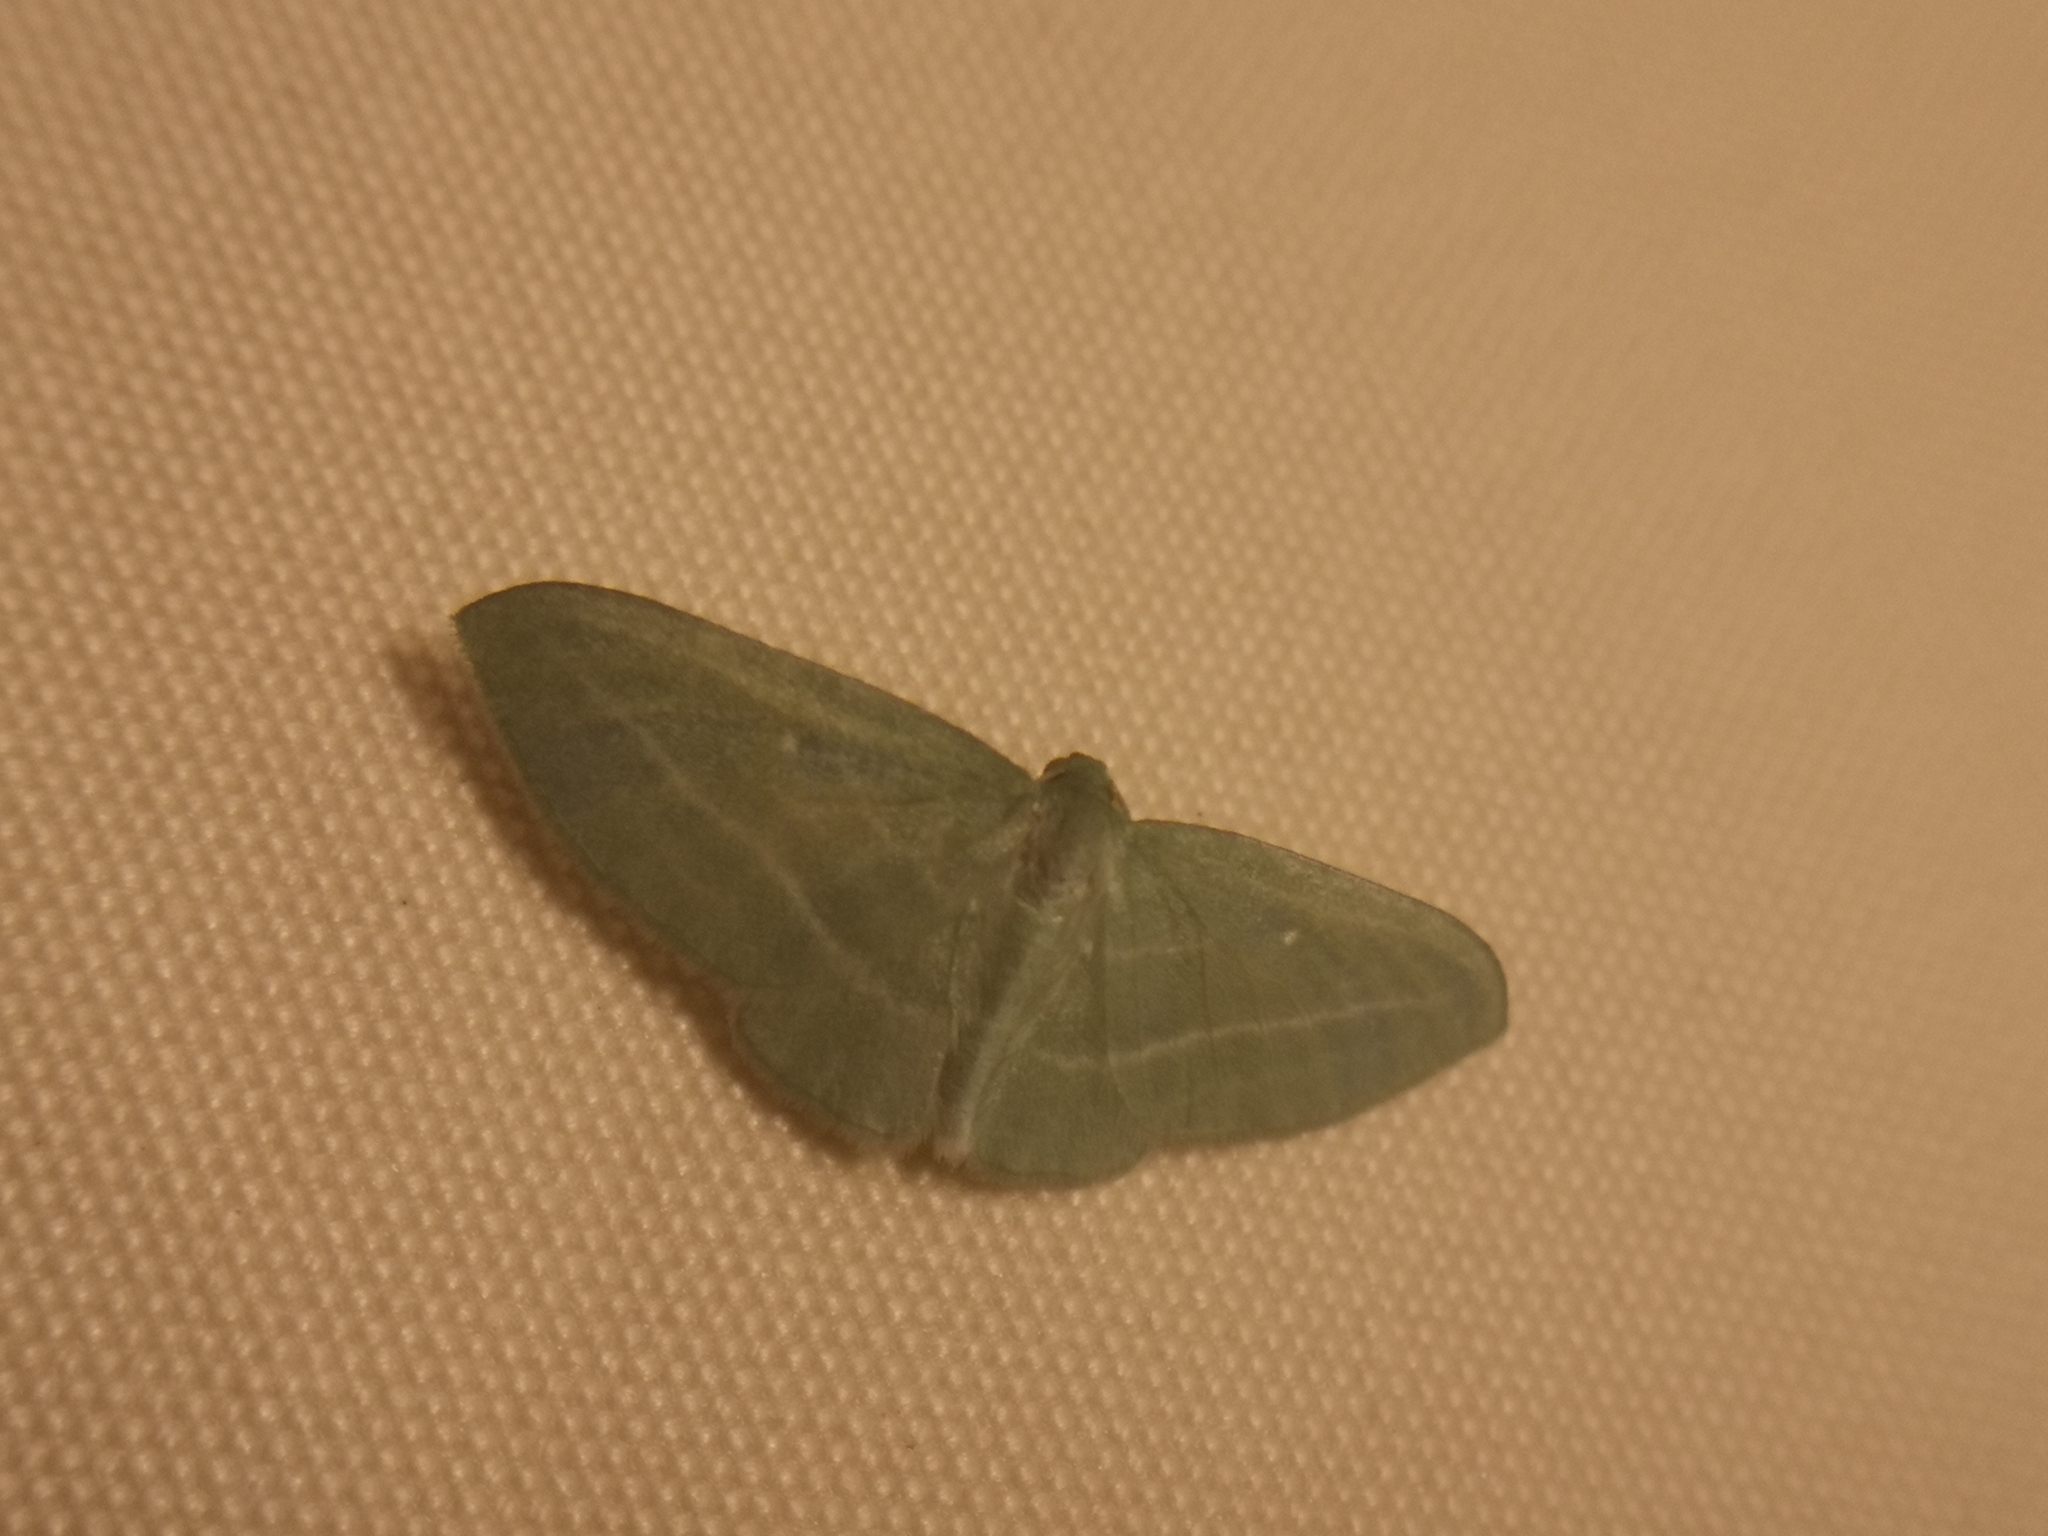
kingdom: Animalia
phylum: Arthropoda
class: Insecta
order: Lepidoptera
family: Geometridae
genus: Dyspteris
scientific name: Dyspteris abortivaria
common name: Bad-wing
